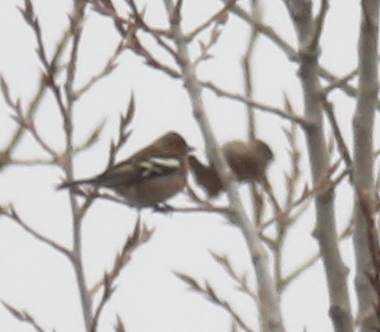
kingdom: Animalia
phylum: Chordata
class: Aves
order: Passeriformes
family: Fringillidae
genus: Fringilla
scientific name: Fringilla coelebs
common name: Common chaffinch
